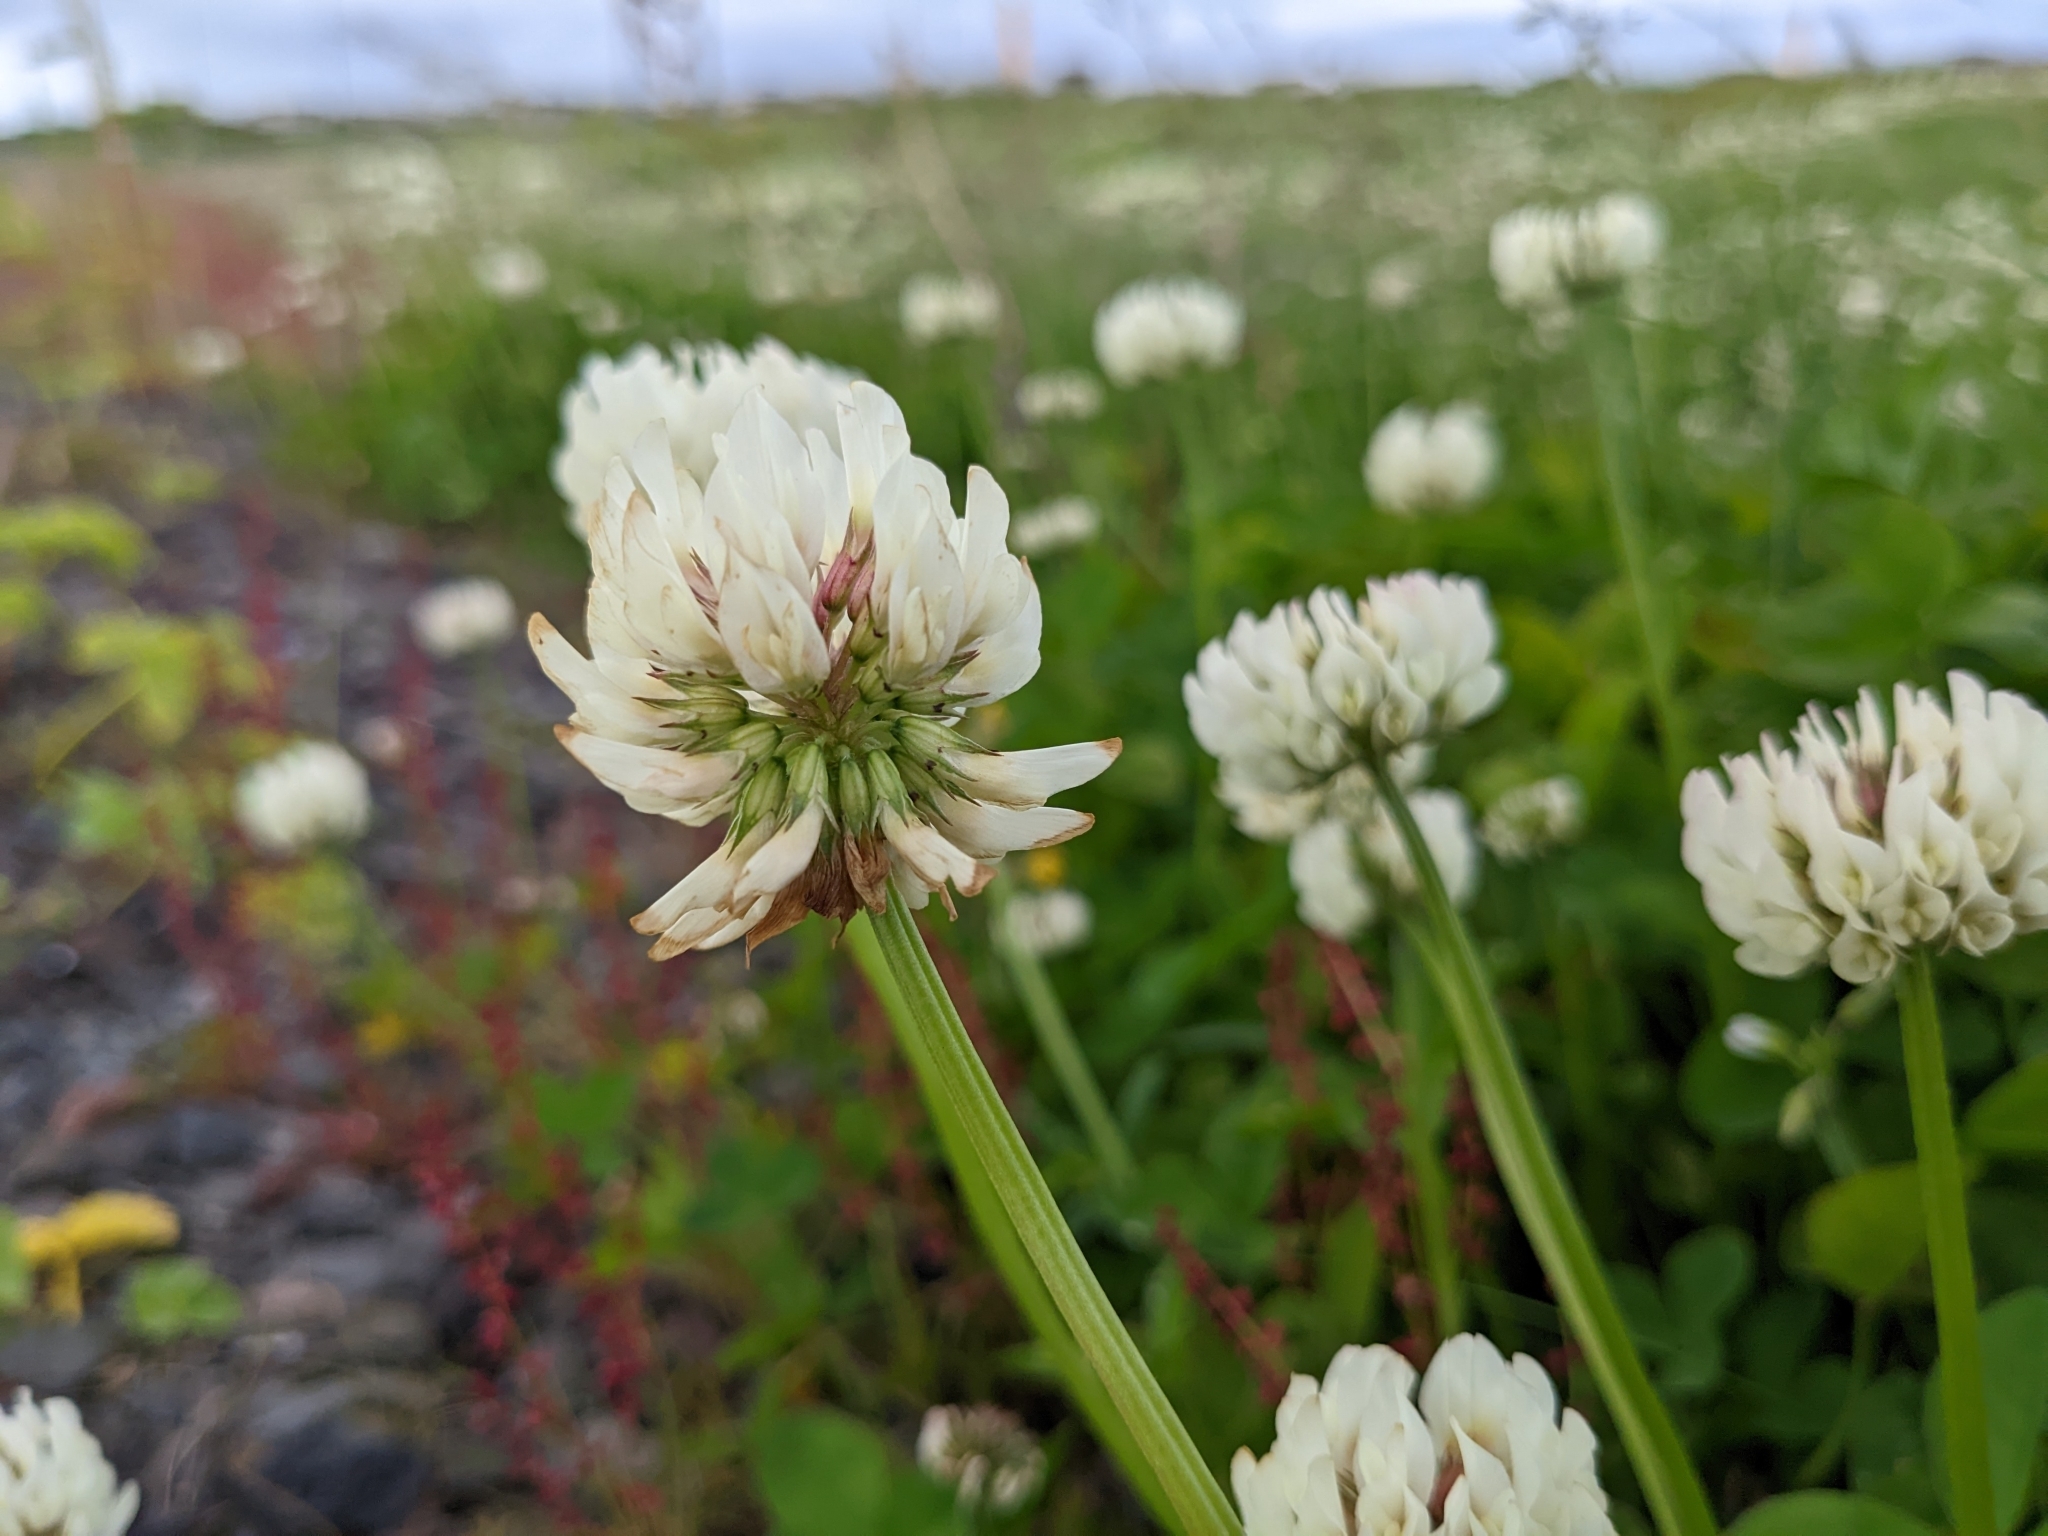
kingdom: Plantae
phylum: Tracheophyta
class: Magnoliopsida
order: Fabales
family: Fabaceae
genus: Trifolium
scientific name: Trifolium repens
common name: White clover
